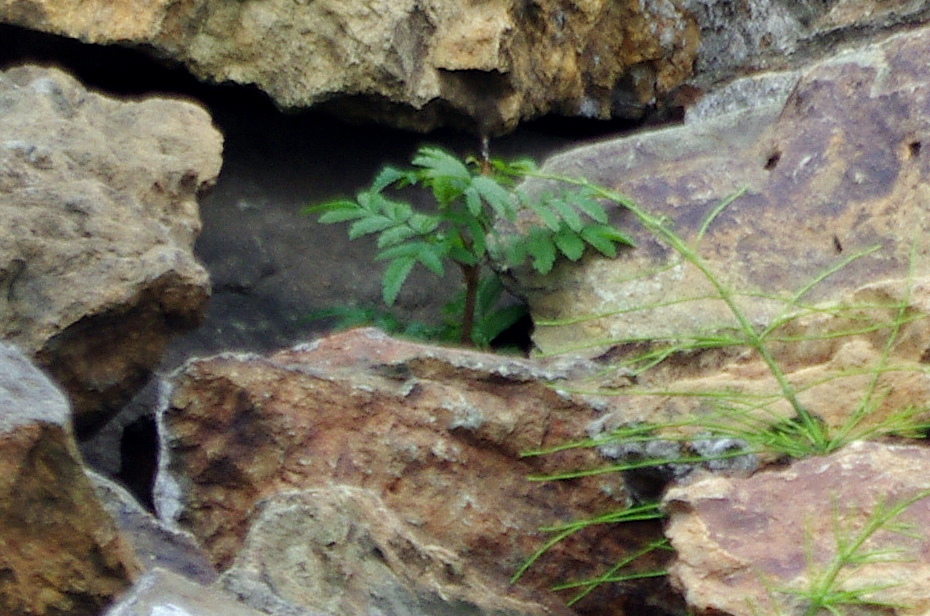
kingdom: Plantae
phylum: Tracheophyta
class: Magnoliopsida
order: Rosales
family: Rosaceae
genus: Sorbus
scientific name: Sorbus aucuparia
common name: Rowan
